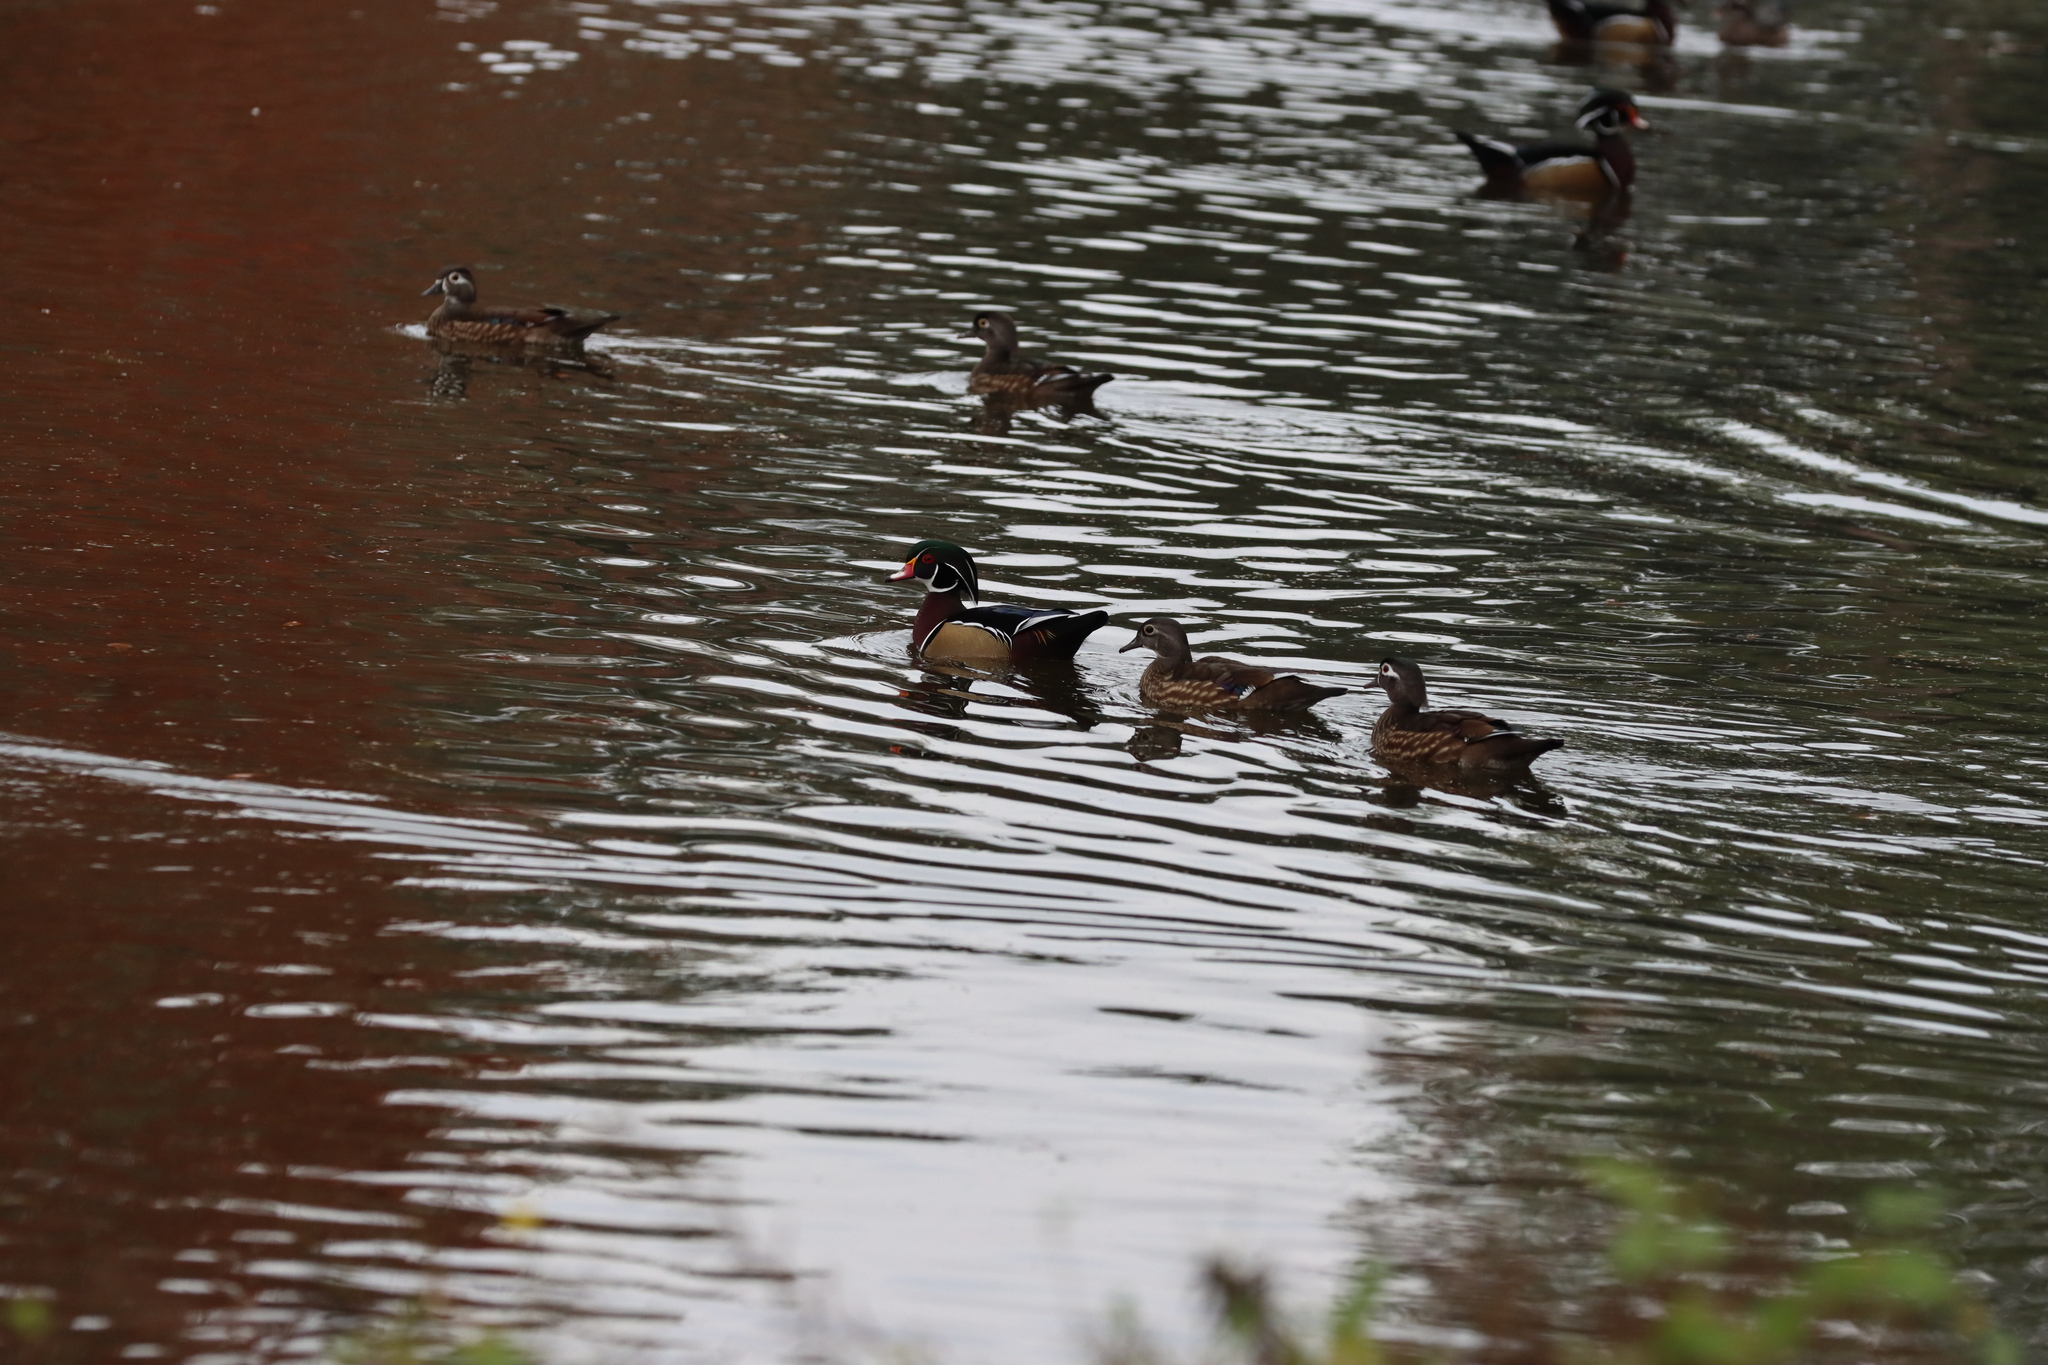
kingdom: Animalia
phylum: Chordata
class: Aves
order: Anseriformes
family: Anatidae
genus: Aix
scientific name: Aix sponsa
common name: Wood duck
